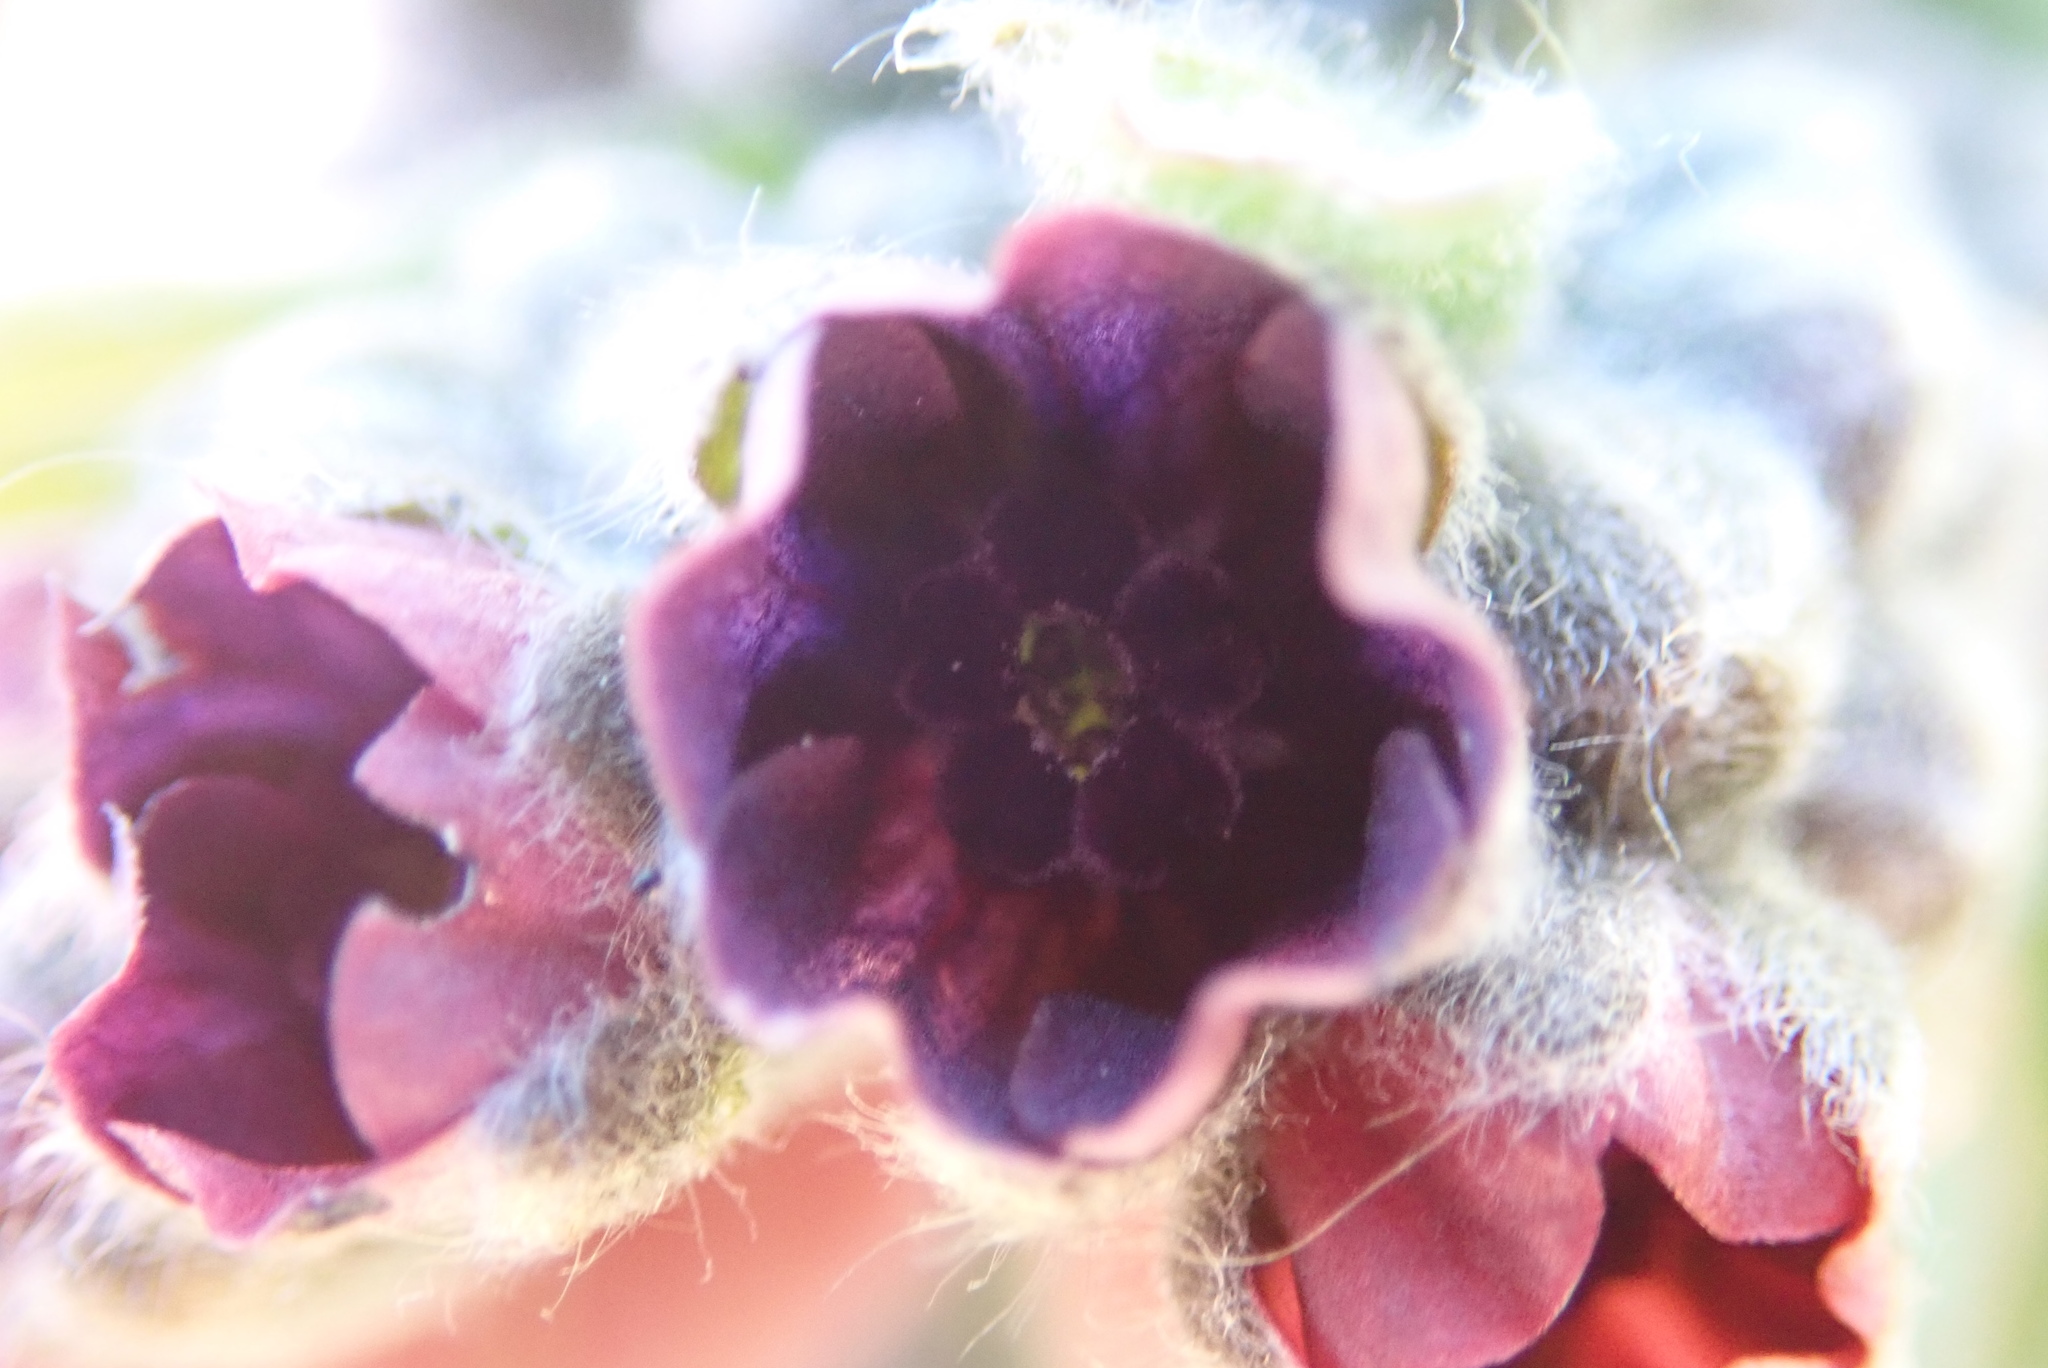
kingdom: Plantae
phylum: Tracheophyta
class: Magnoliopsida
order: Boraginales
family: Boraginaceae
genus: Cynoglossum
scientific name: Cynoglossum officinale
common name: Hound's-tongue
